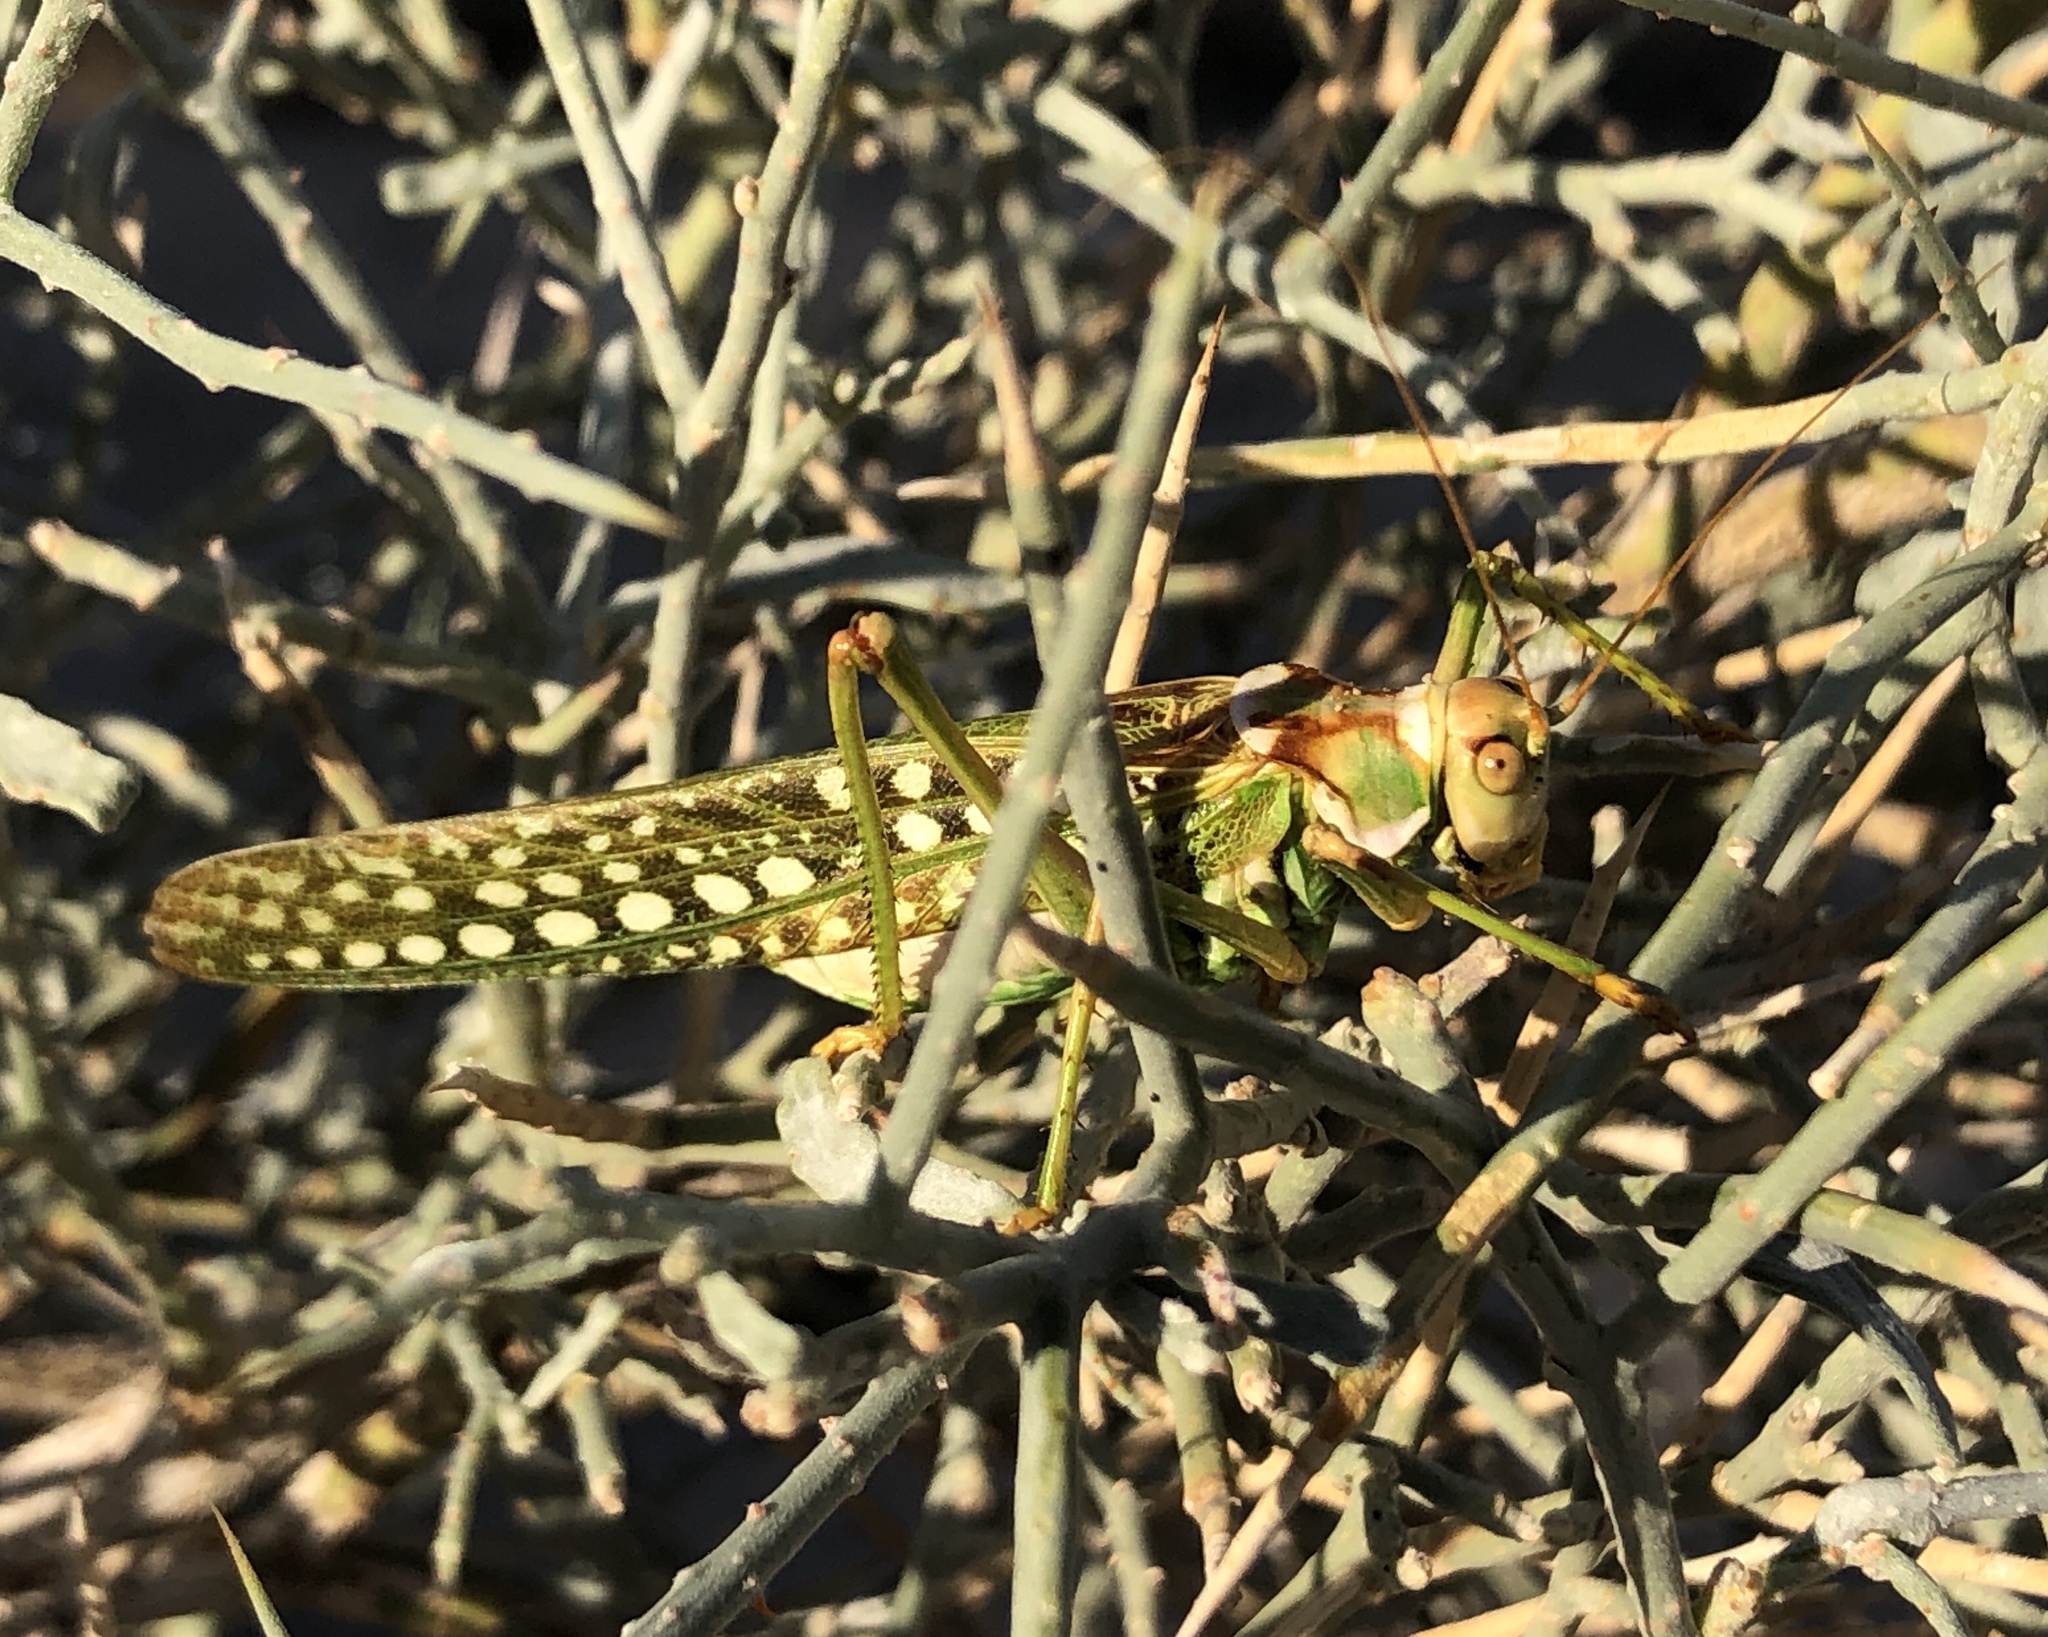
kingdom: Animalia
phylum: Arthropoda
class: Insecta
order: Orthoptera
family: Tettigoniidae
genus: Capnobotes
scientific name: Capnobotes arizonensis
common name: Arizona longwing
